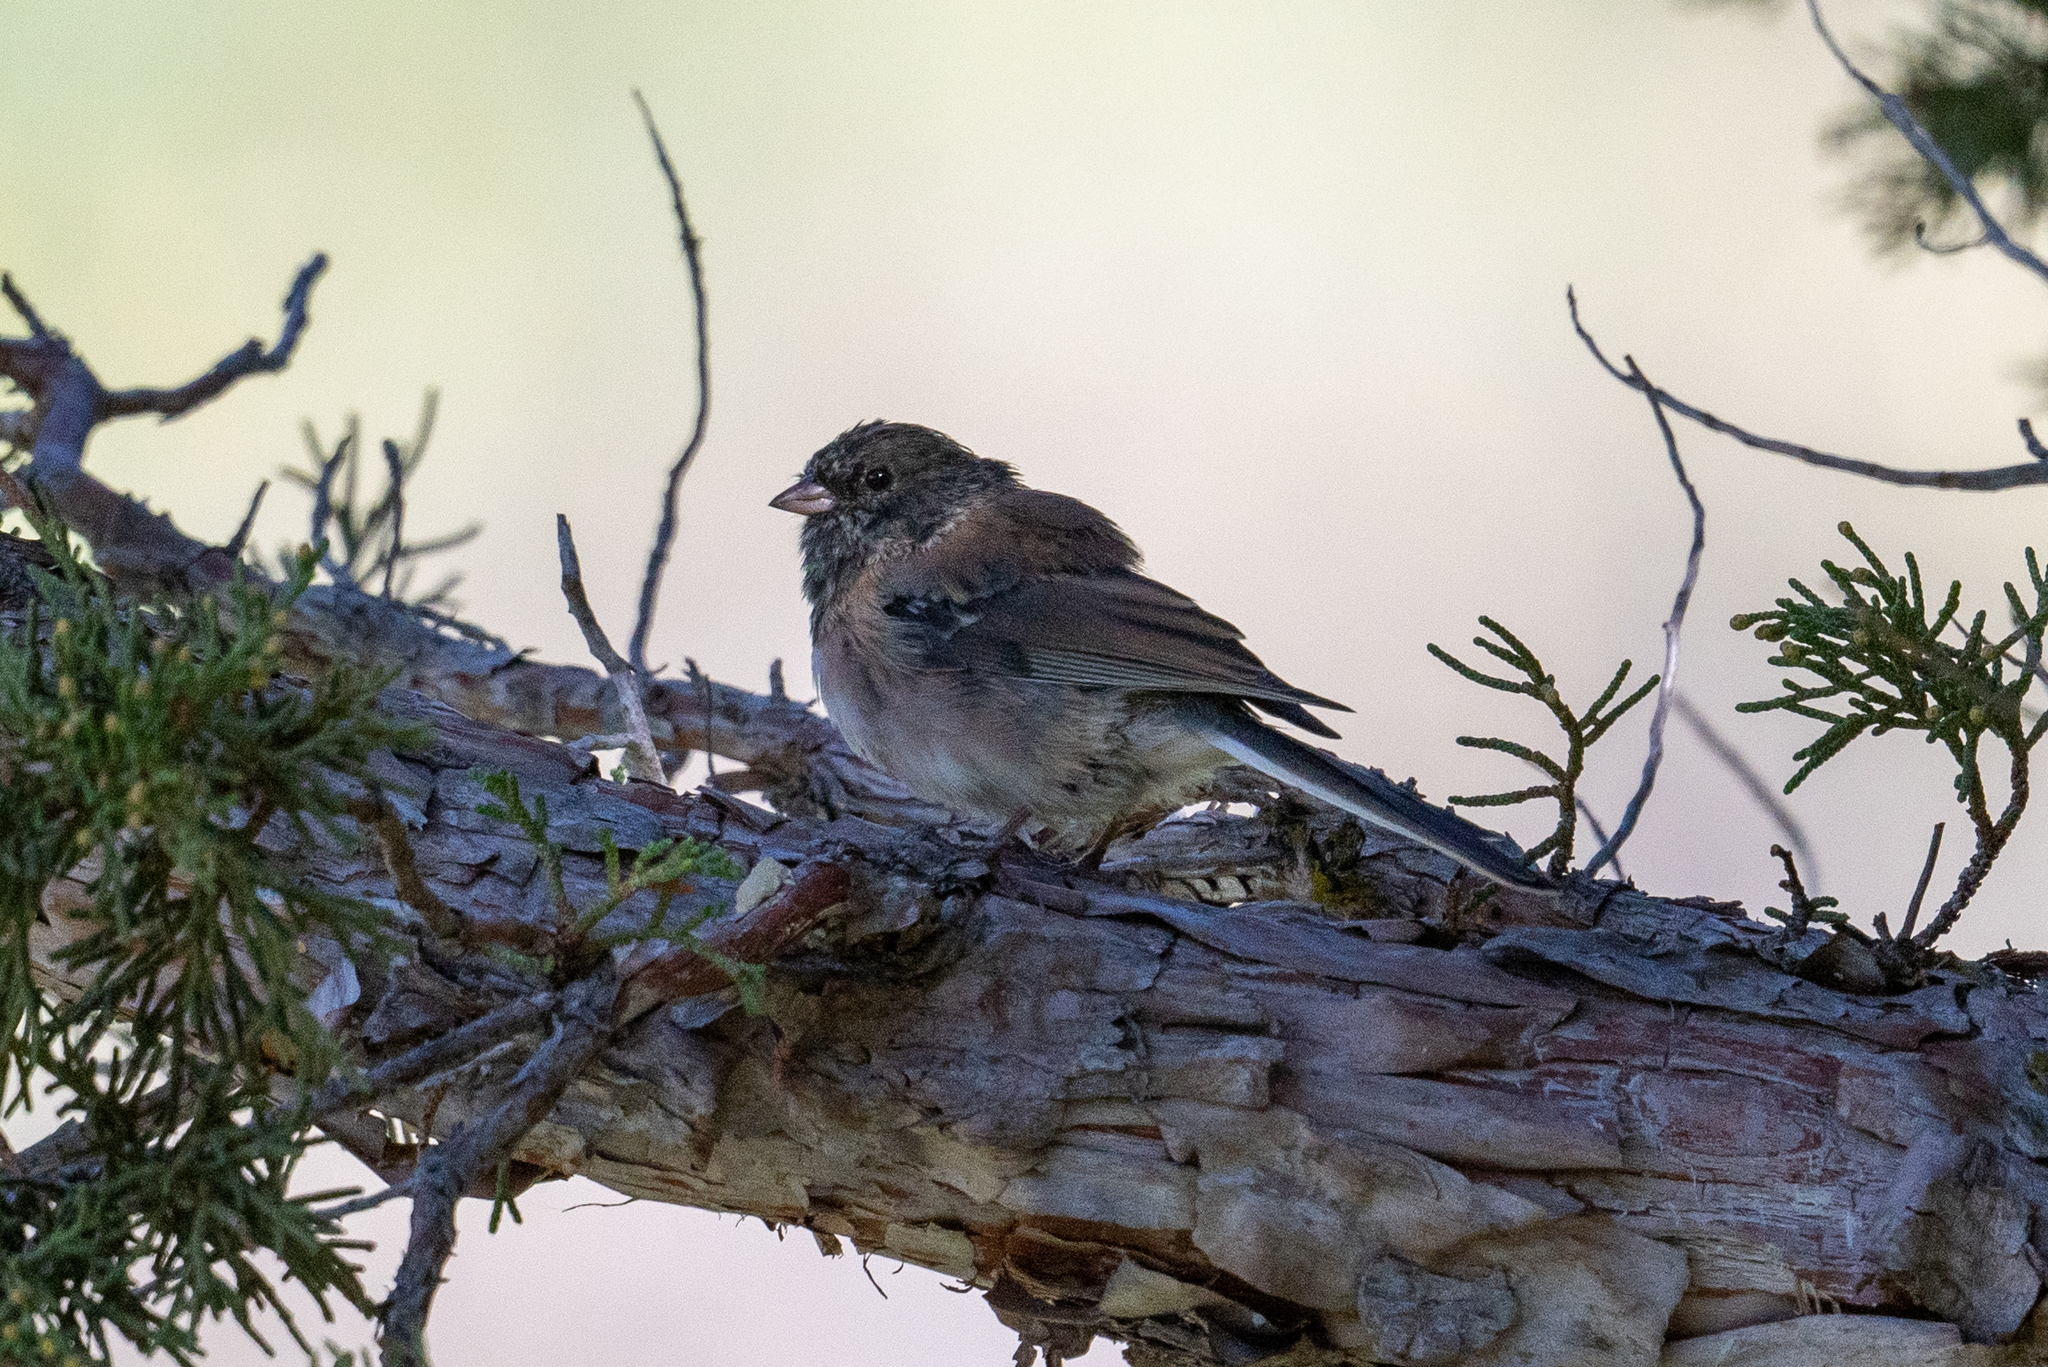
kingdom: Animalia
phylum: Chordata
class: Aves
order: Passeriformes
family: Passerellidae
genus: Junco
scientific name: Junco hyemalis
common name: Dark-eyed junco
